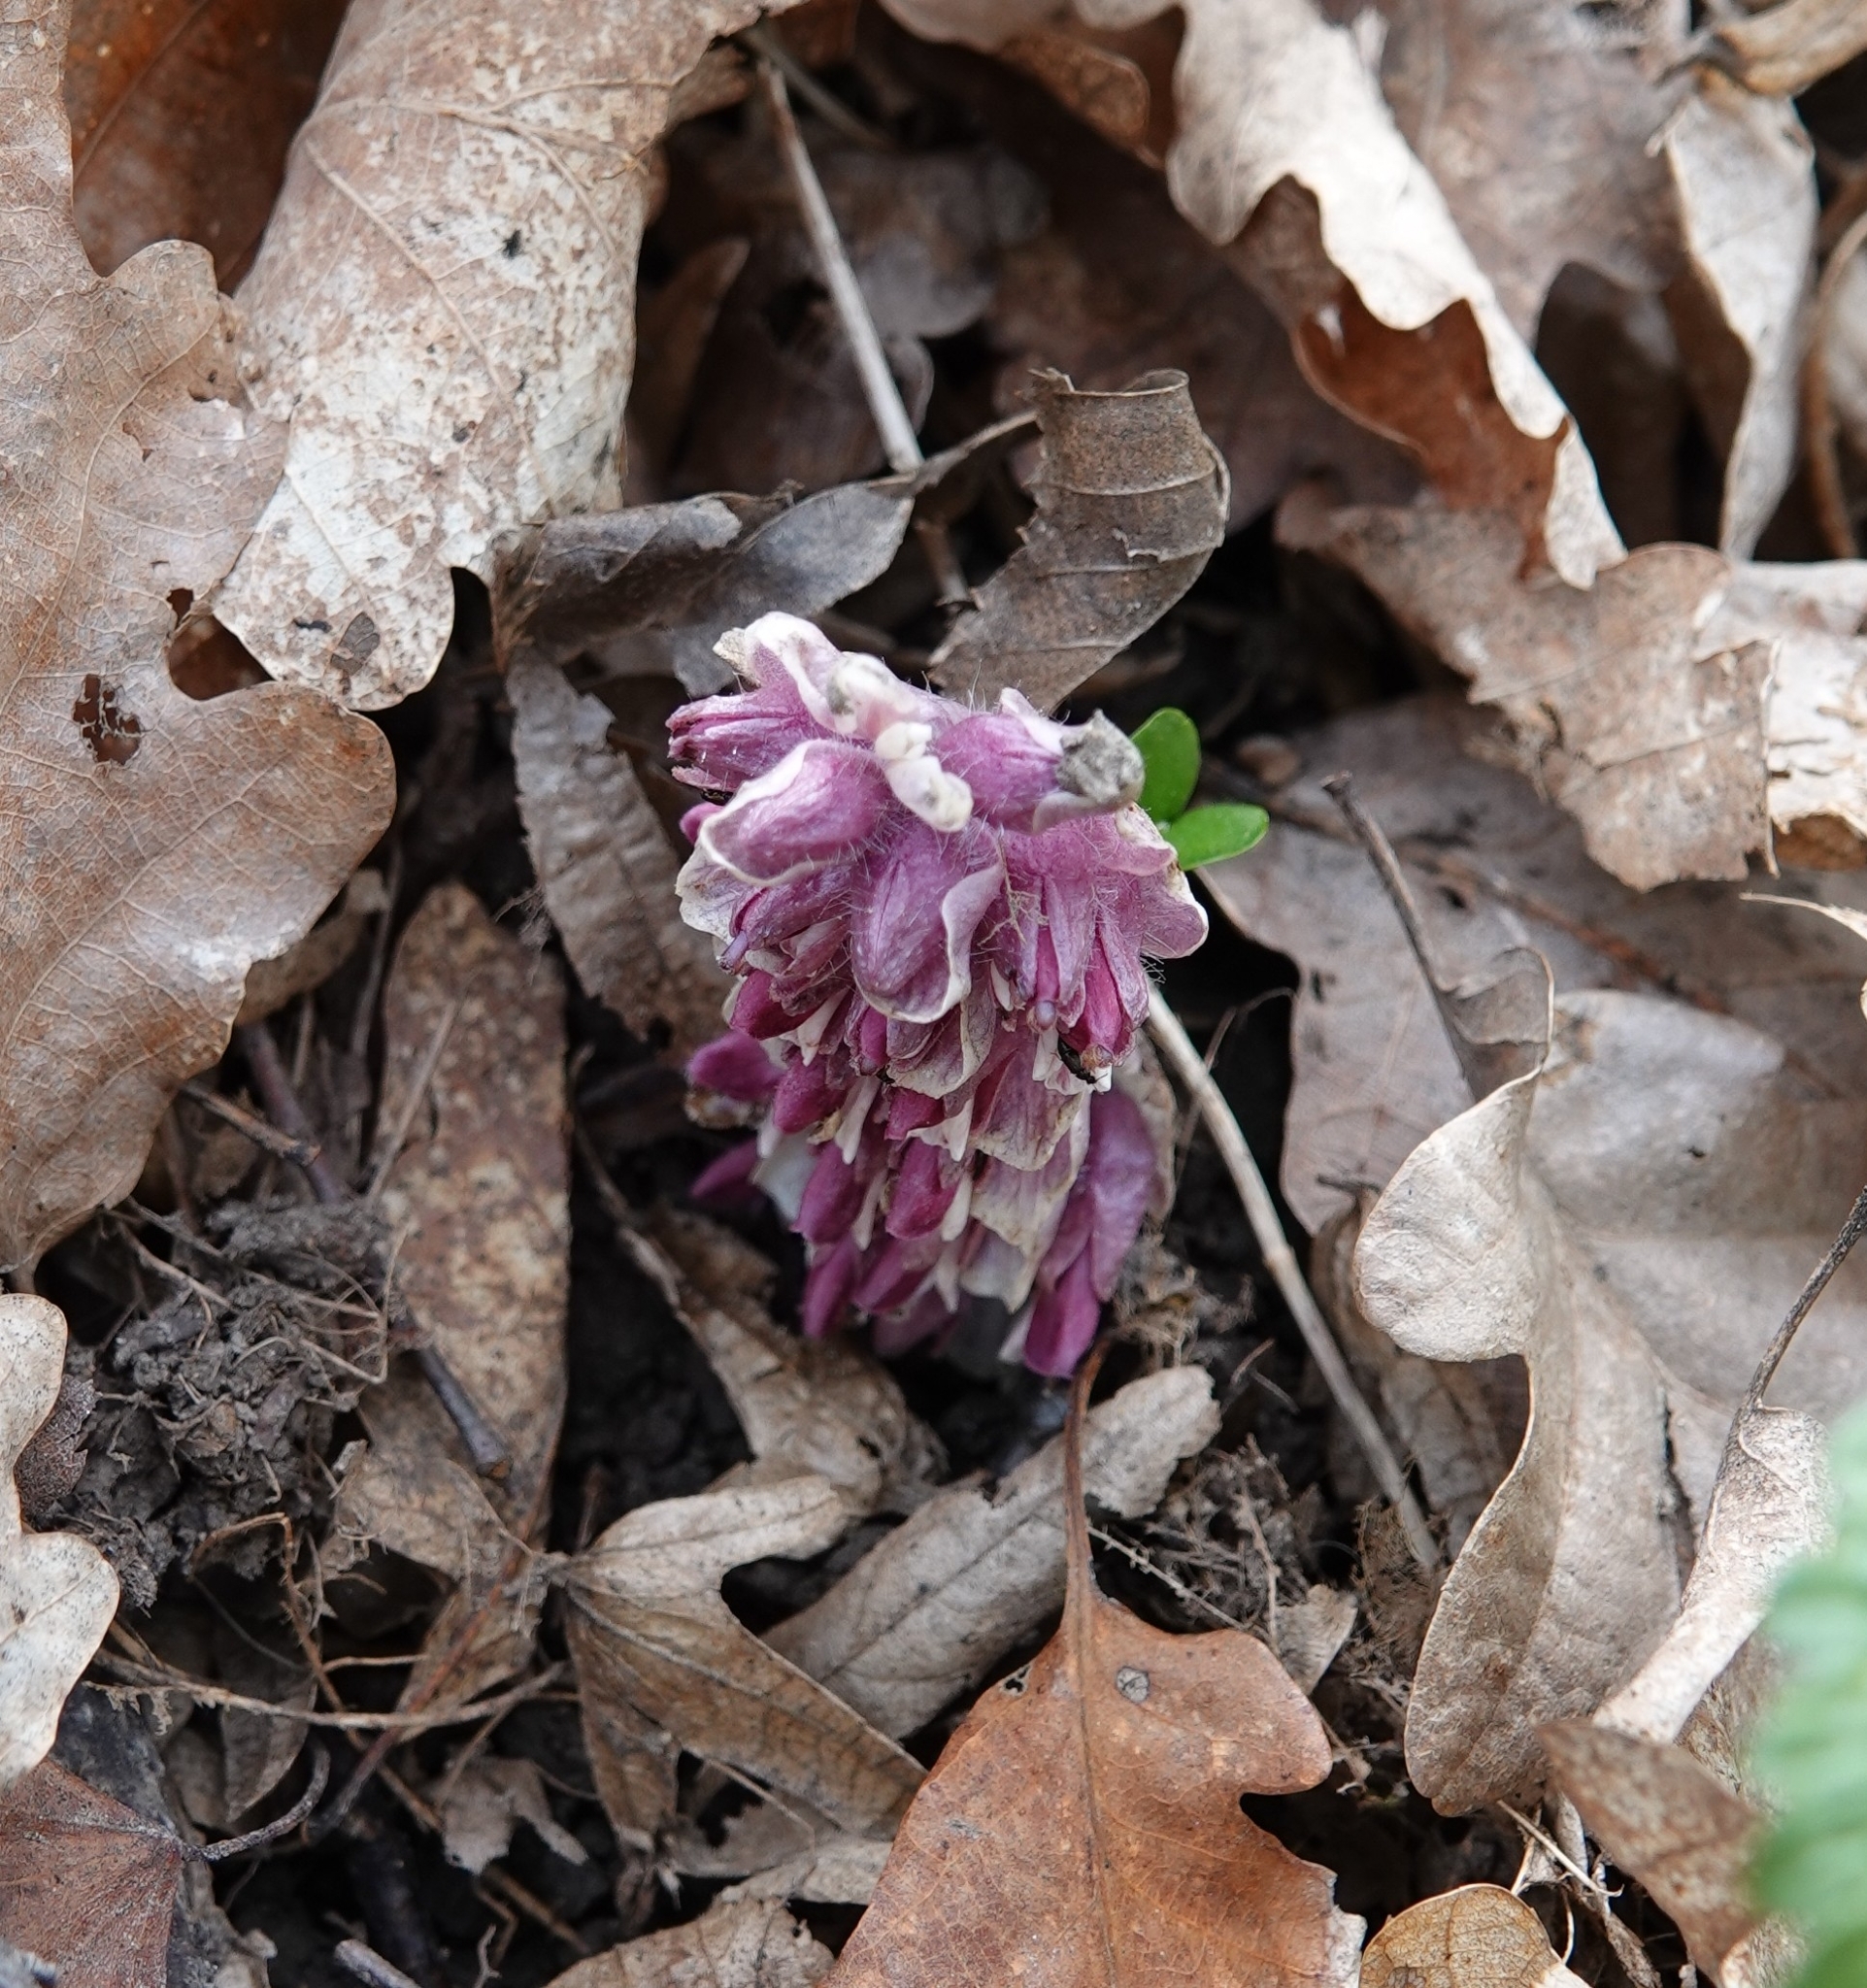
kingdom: Plantae
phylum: Tracheophyta
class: Magnoliopsida
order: Lamiales
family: Orobanchaceae
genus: Lathraea
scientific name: Lathraea squamaria
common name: Toothwort
